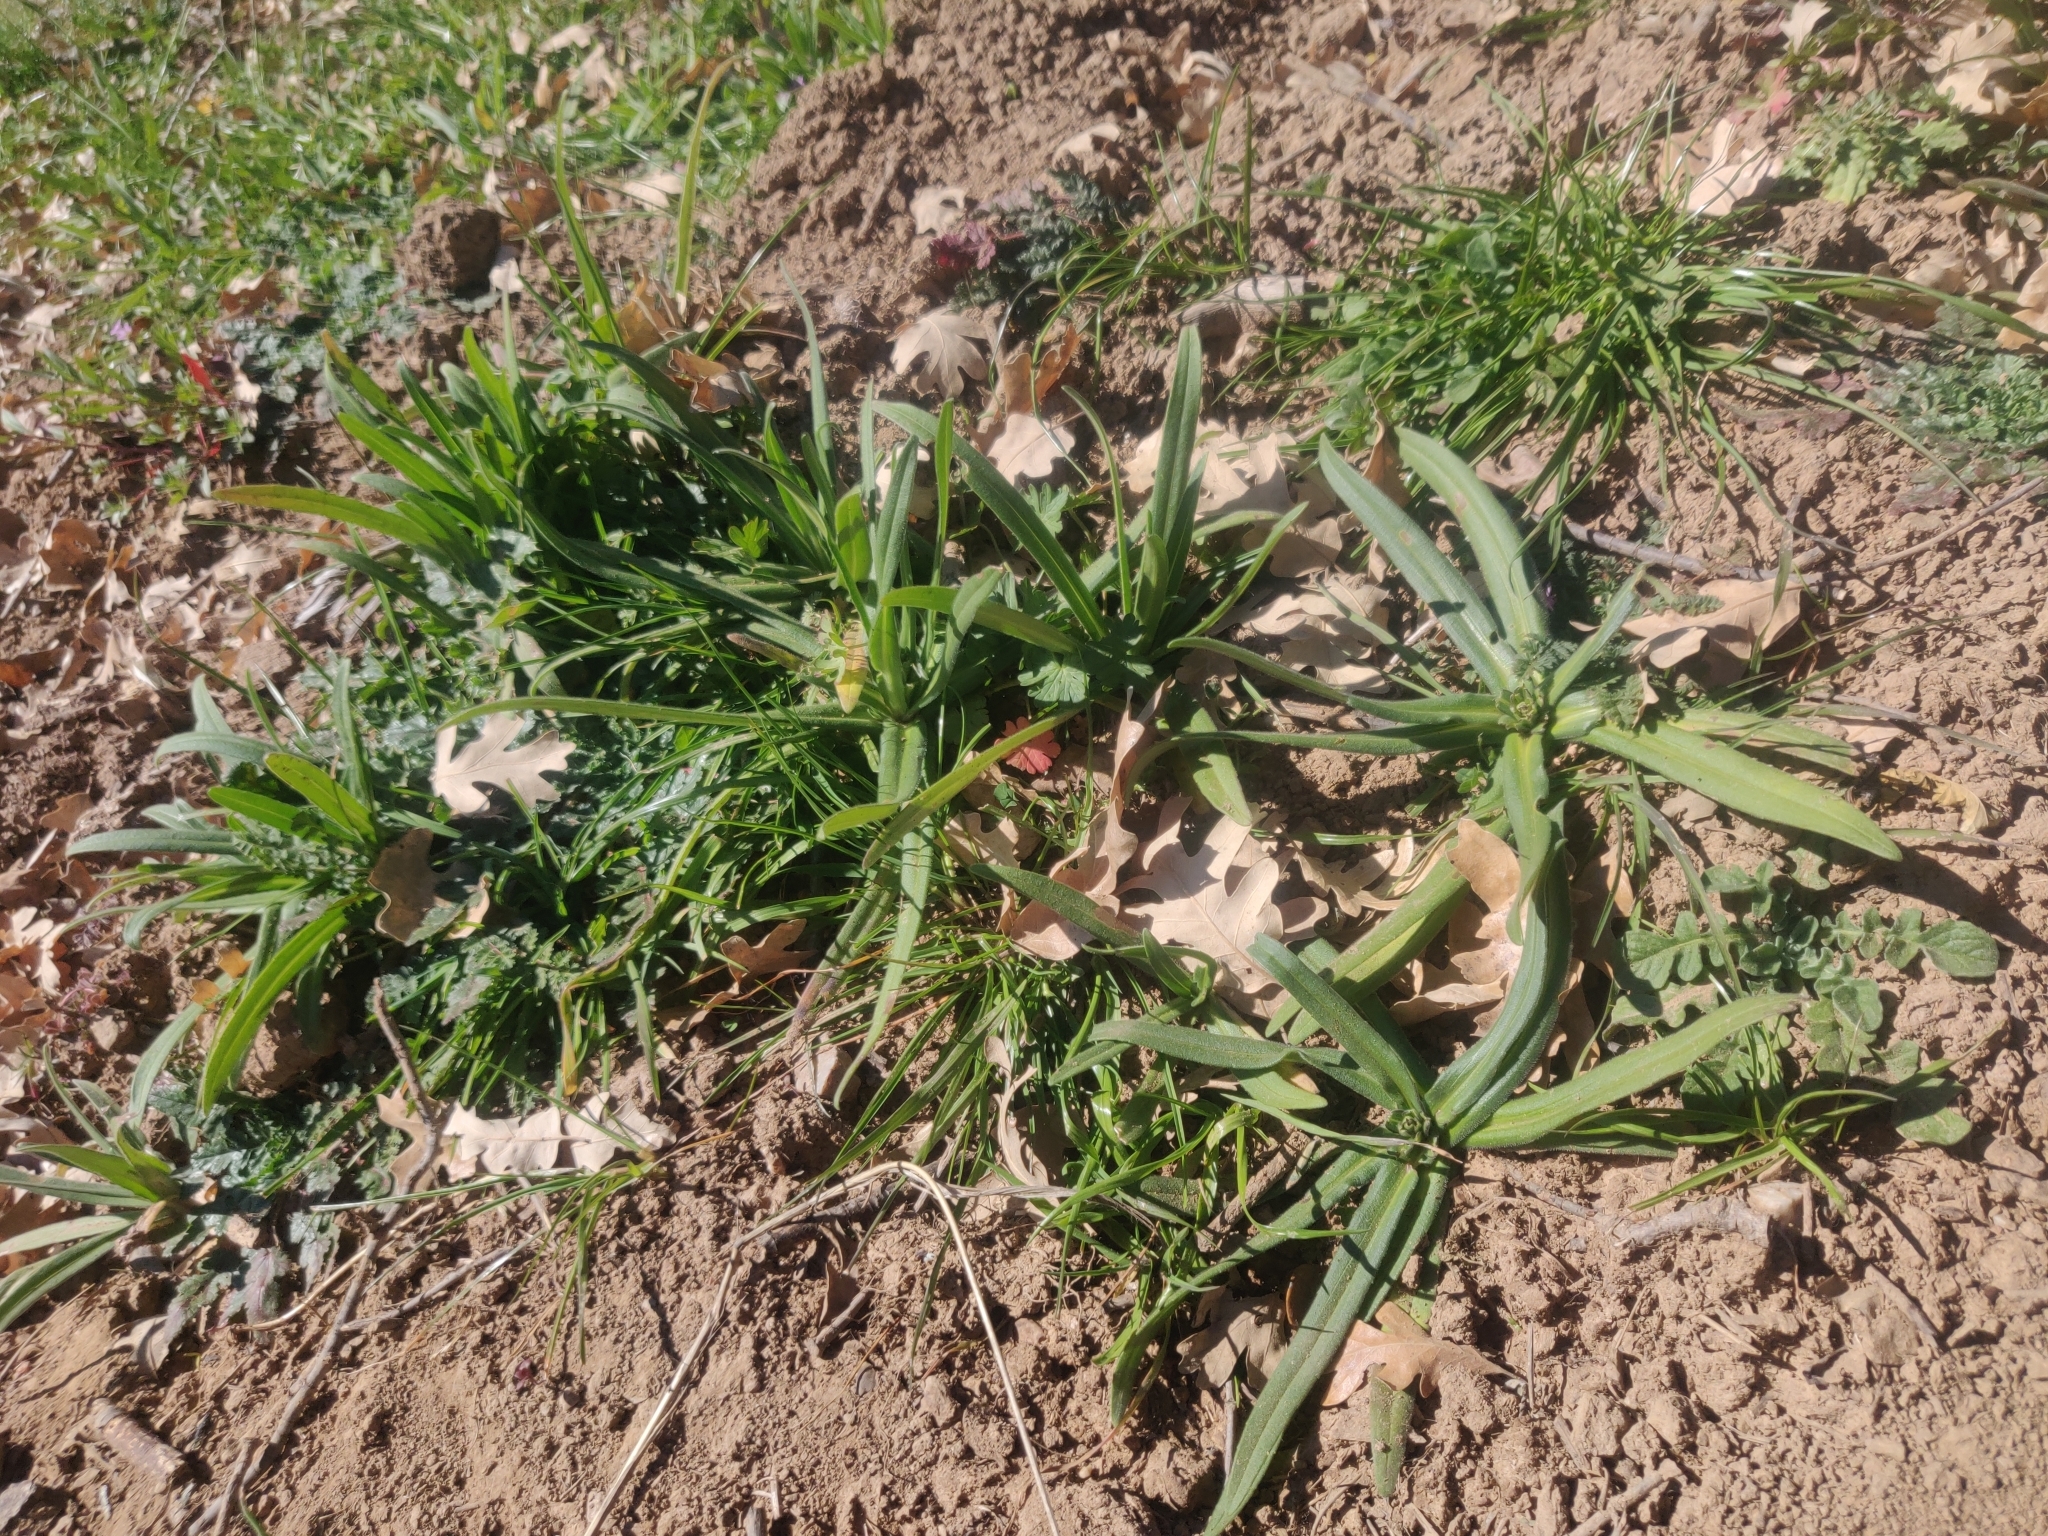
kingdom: Plantae
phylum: Tracheophyta
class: Magnoliopsida
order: Asterales
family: Asteraceae
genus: Madia
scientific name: Madia gracilis
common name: Grassy tarweed
